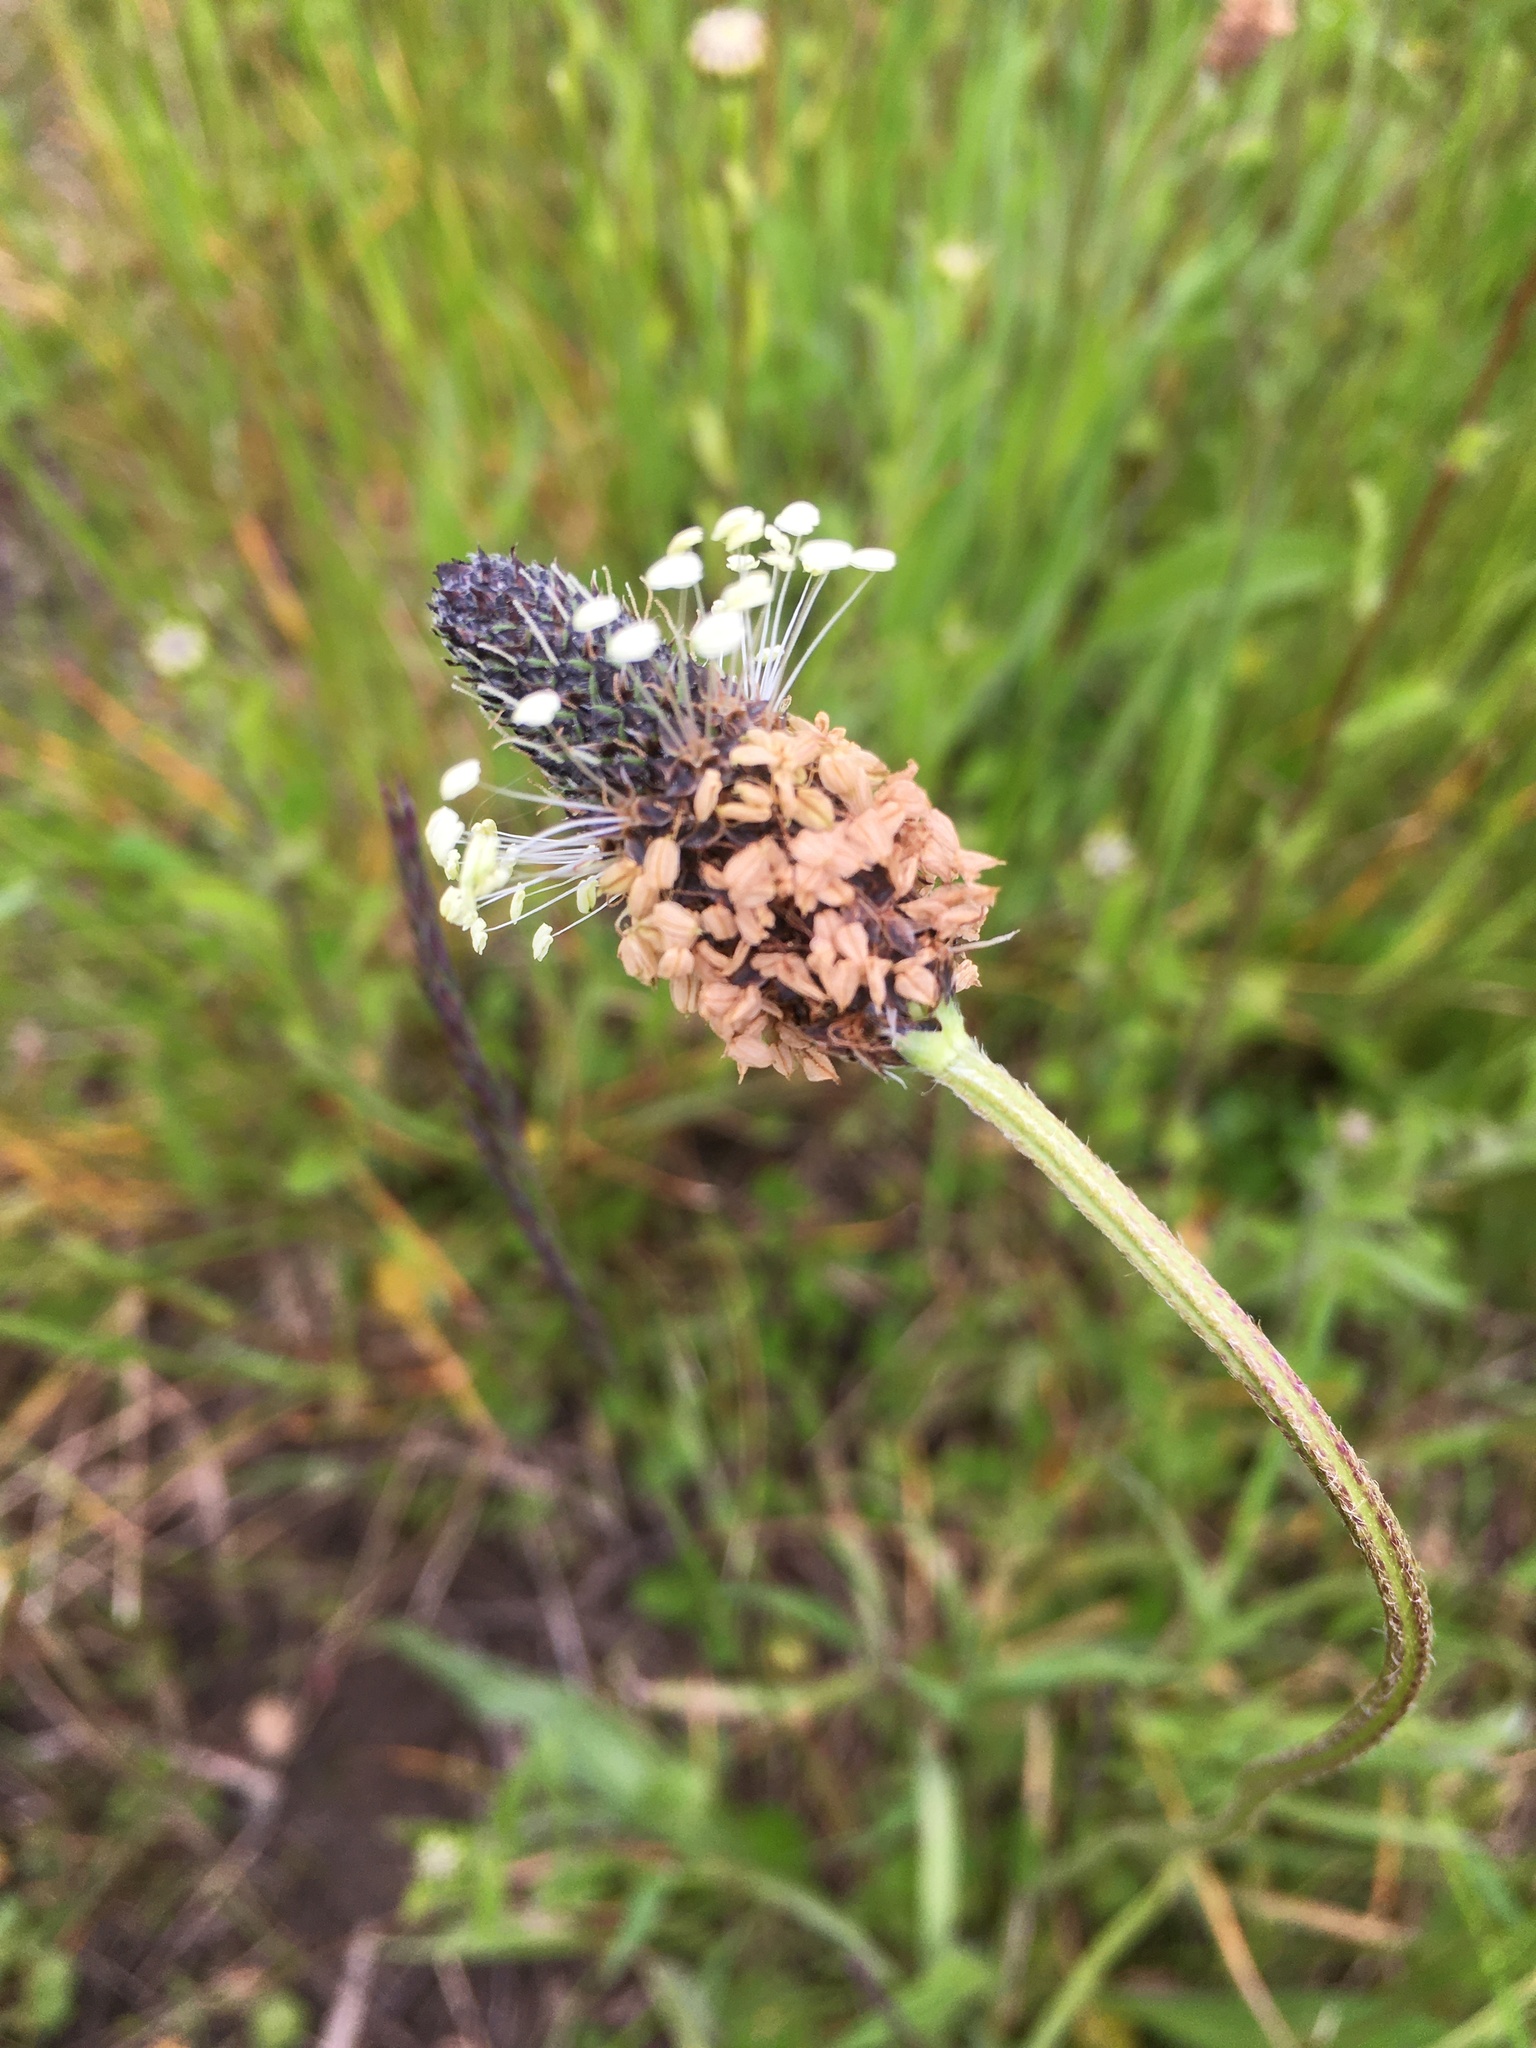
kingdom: Plantae
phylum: Tracheophyta
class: Magnoliopsida
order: Lamiales
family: Plantaginaceae
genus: Plantago
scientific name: Plantago lanceolata
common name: Ribwort plantain
